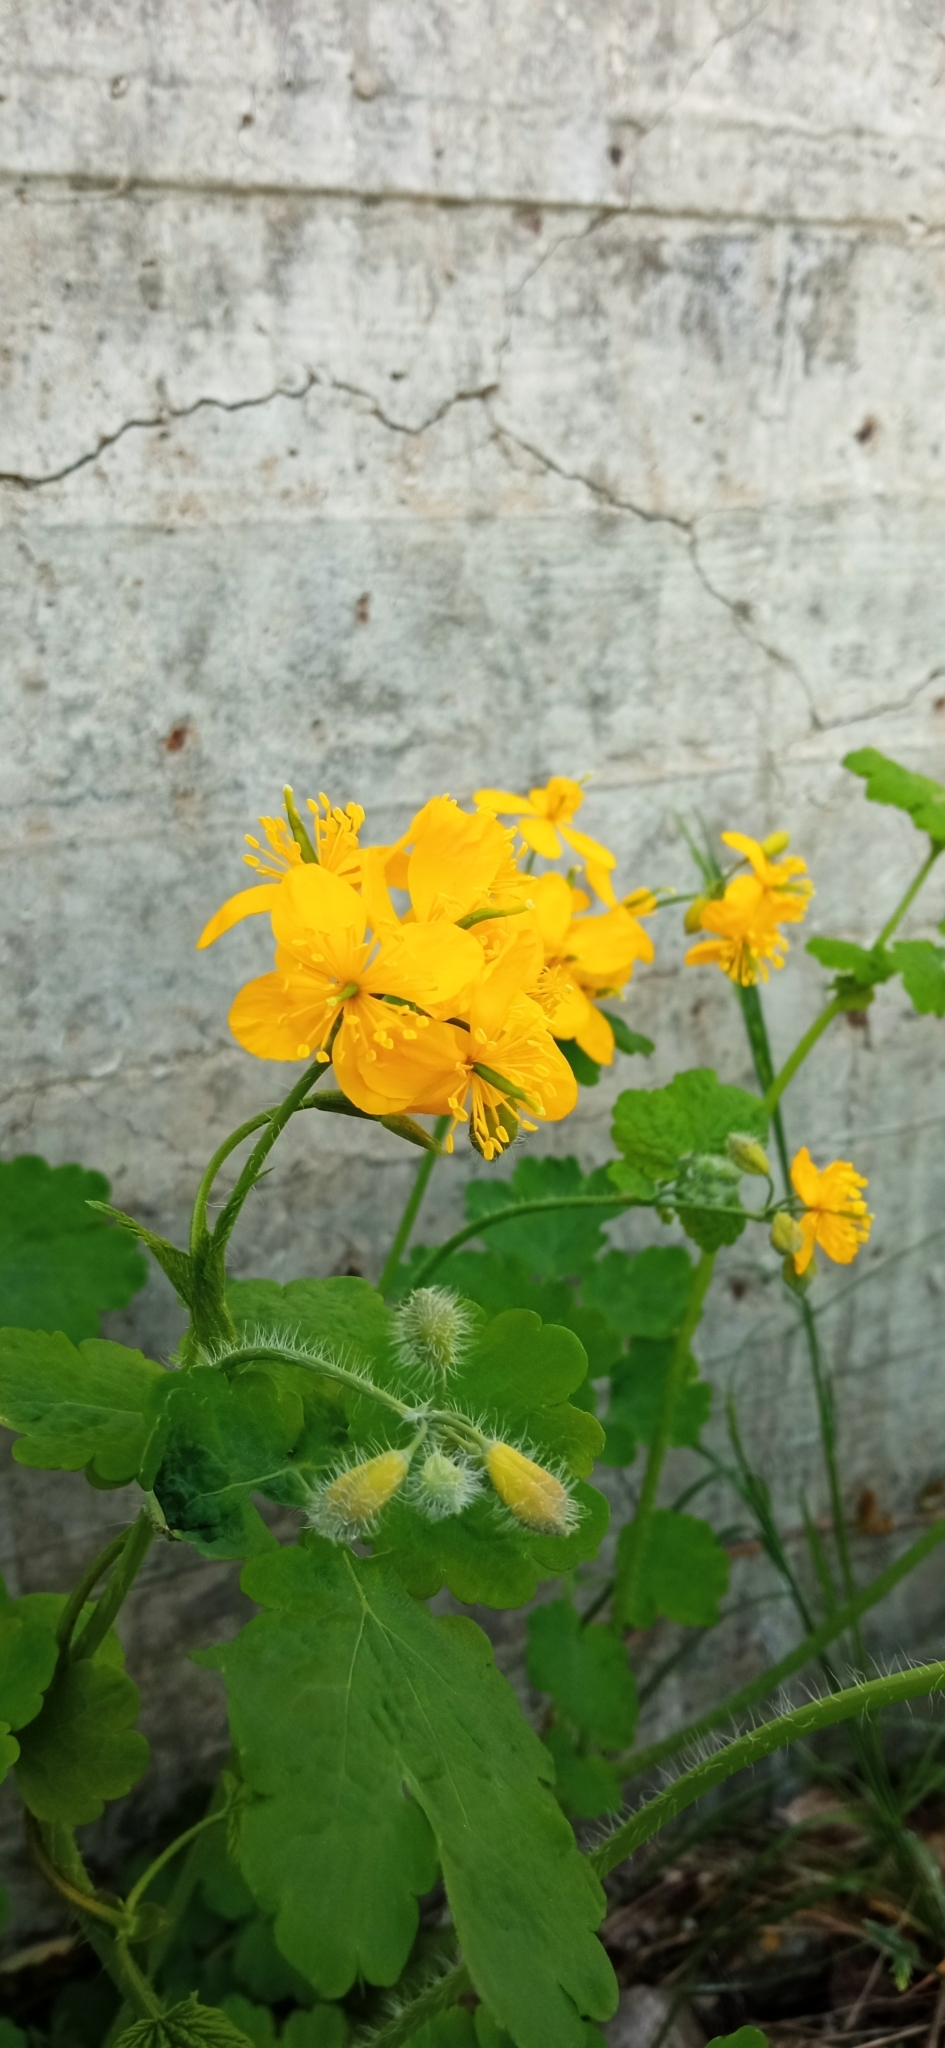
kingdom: Plantae
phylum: Tracheophyta
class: Magnoliopsida
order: Ranunculales
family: Papaveraceae
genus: Chelidonium
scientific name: Chelidonium majus
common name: Greater celandine
